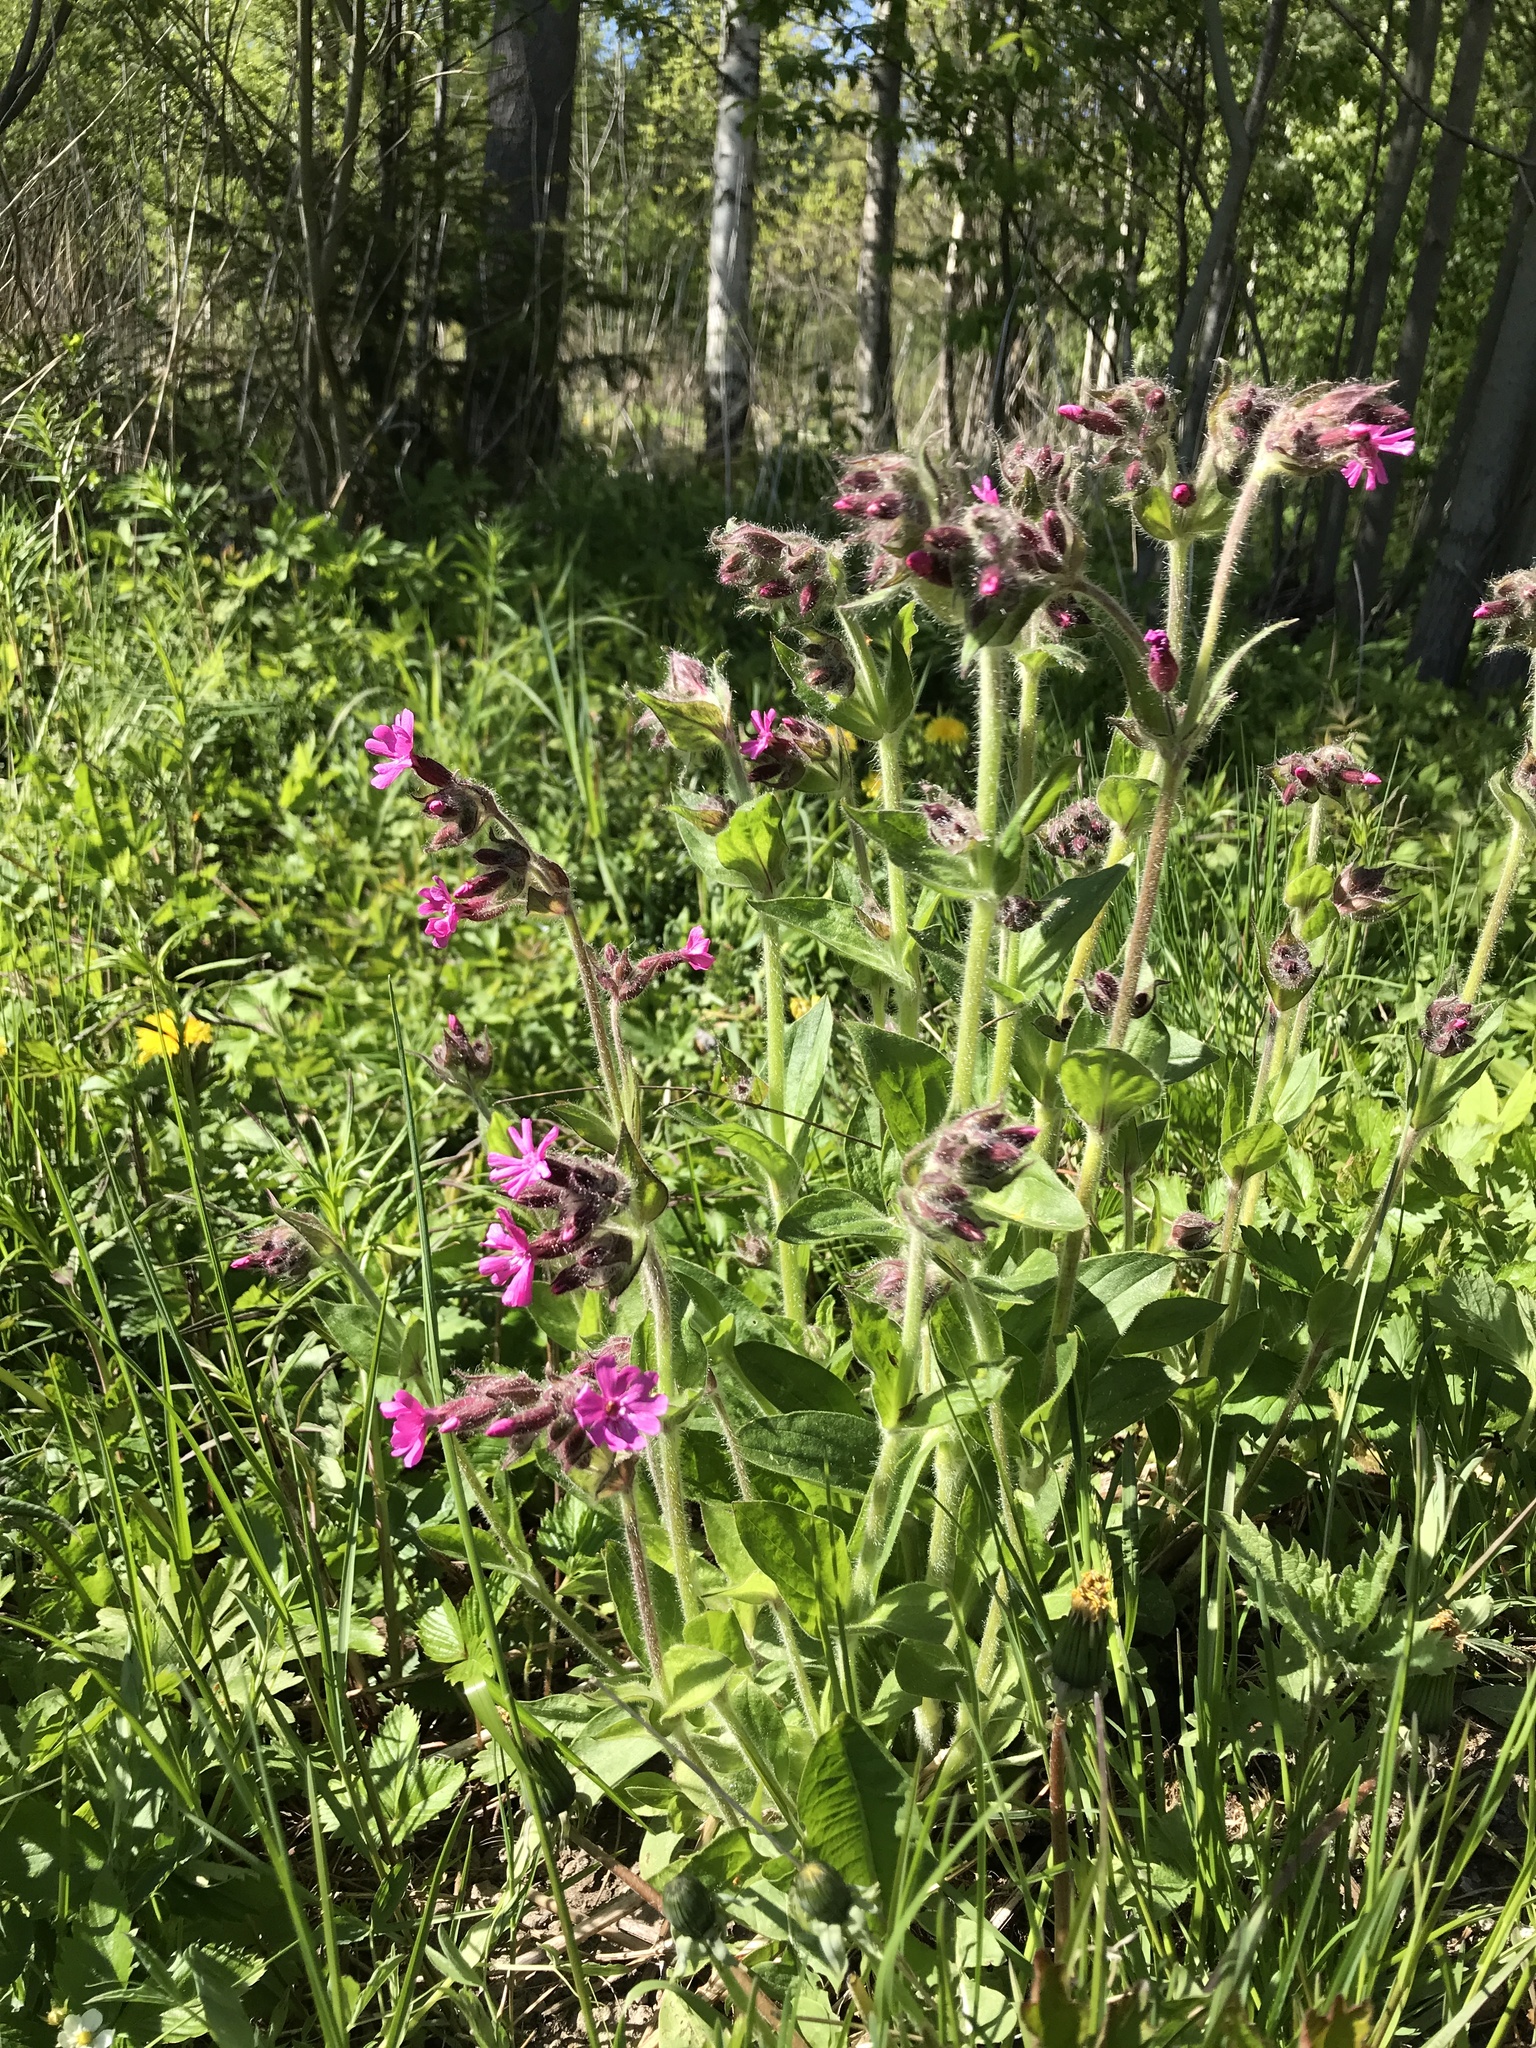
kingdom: Plantae
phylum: Tracheophyta
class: Magnoliopsida
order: Caryophyllales
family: Caryophyllaceae
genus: Silene
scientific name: Silene dioica
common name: Red campion
